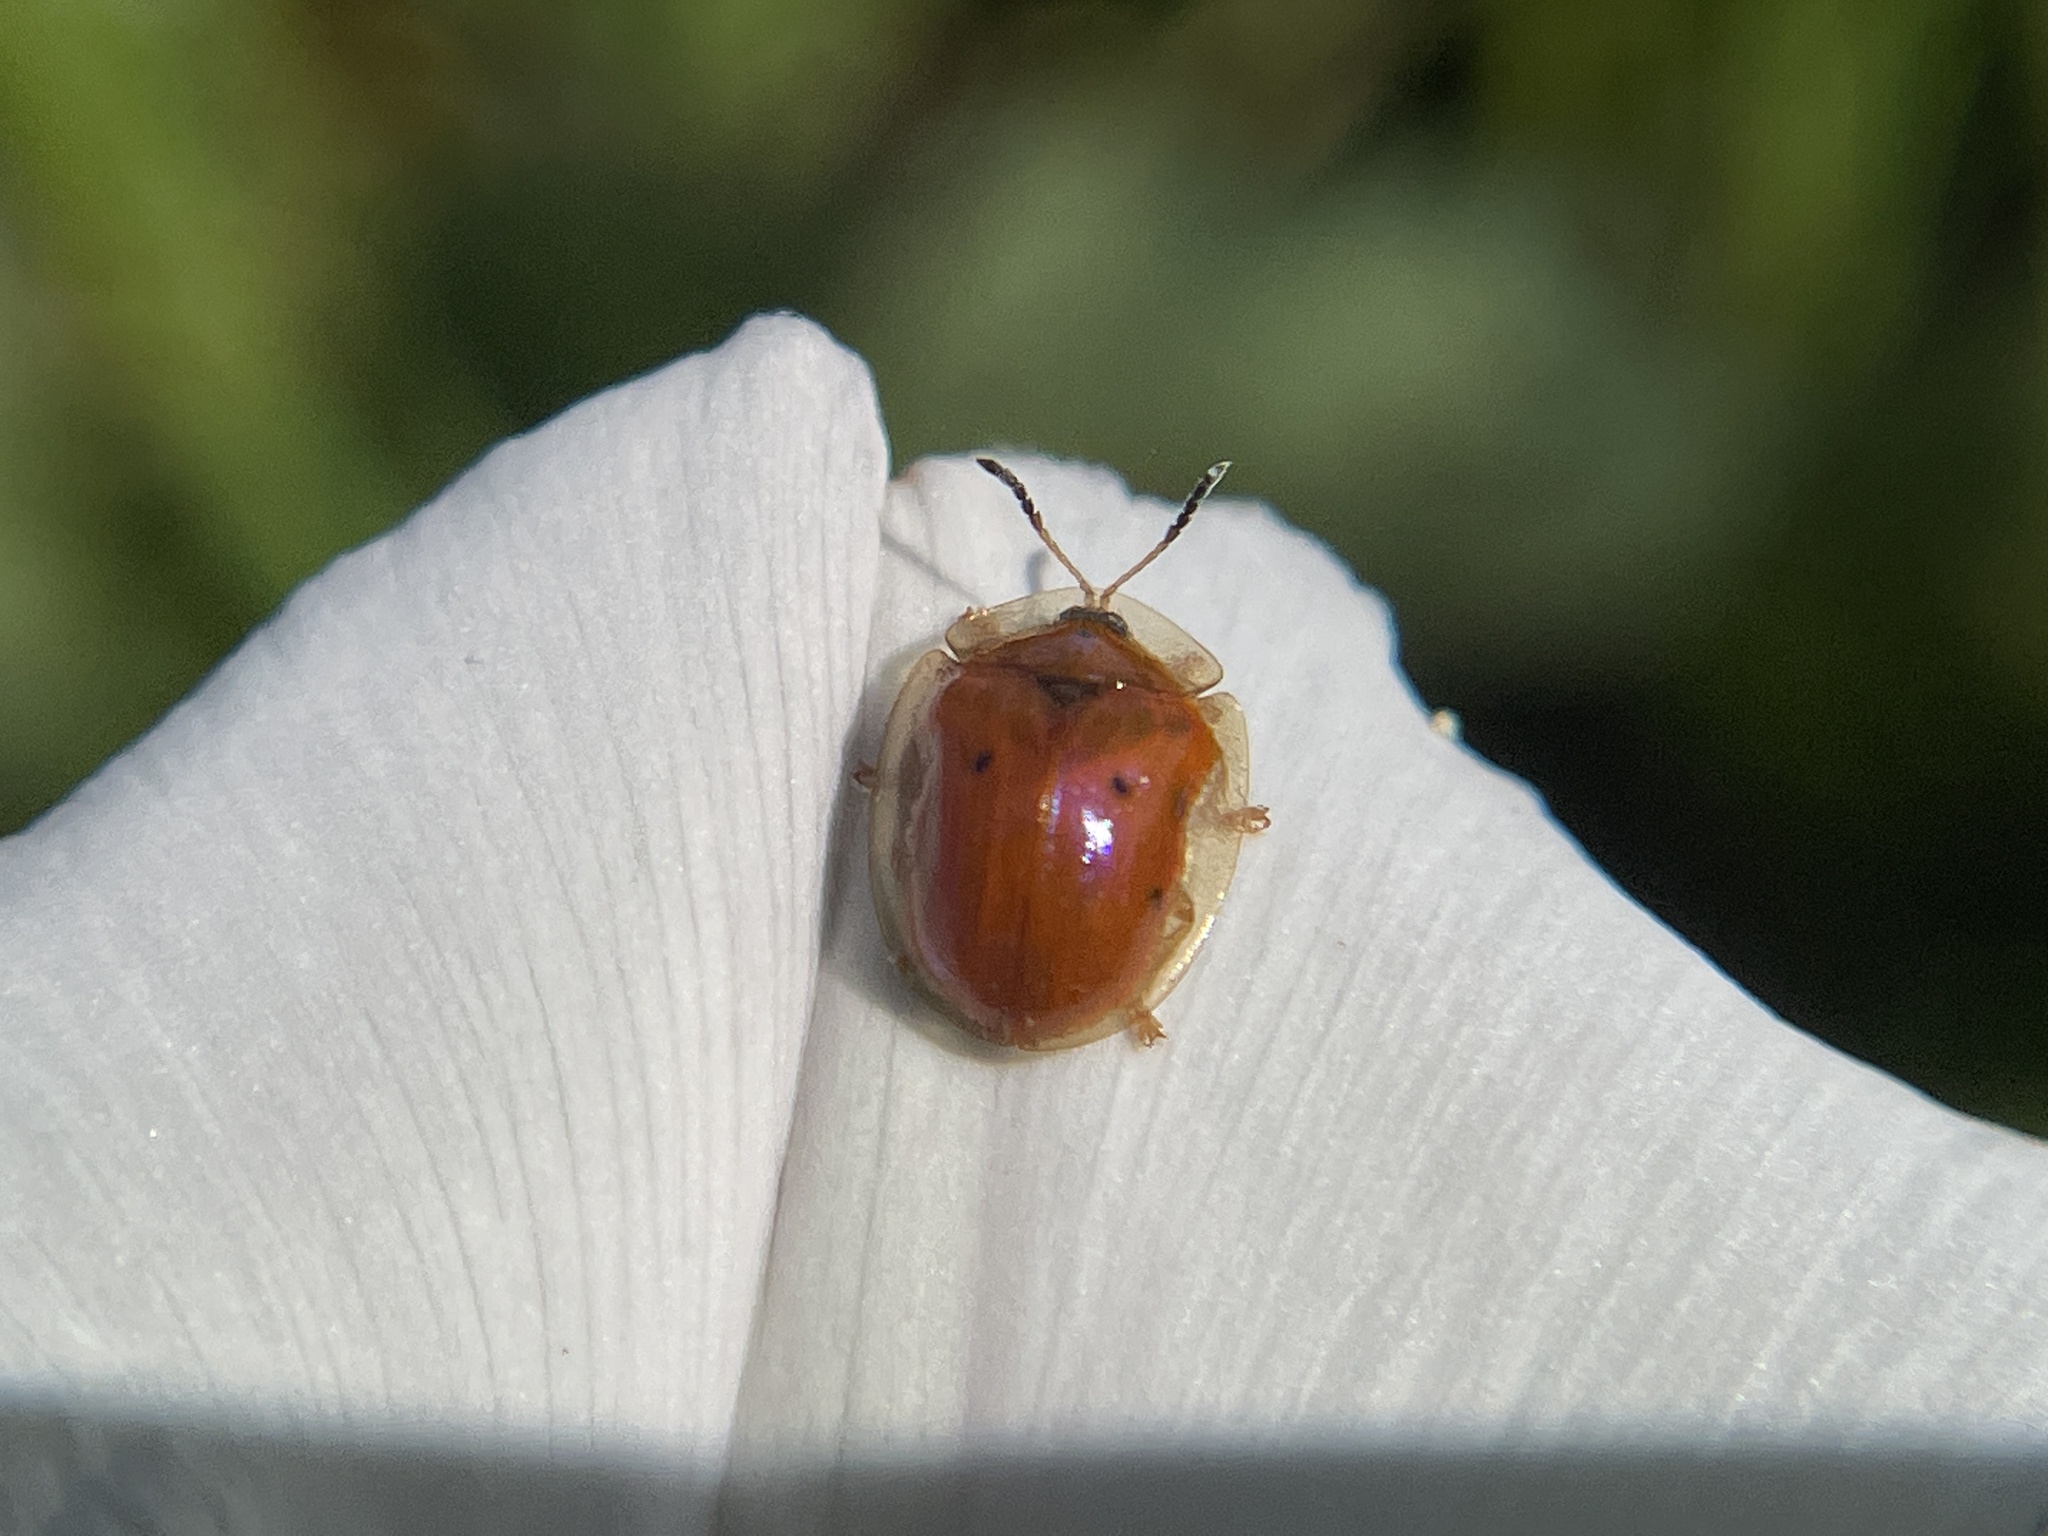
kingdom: Animalia
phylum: Arthropoda
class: Insecta
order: Coleoptera
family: Chrysomelidae
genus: Charidotella
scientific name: Charidotella sexpunctata
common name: Golden tortoise beetle
